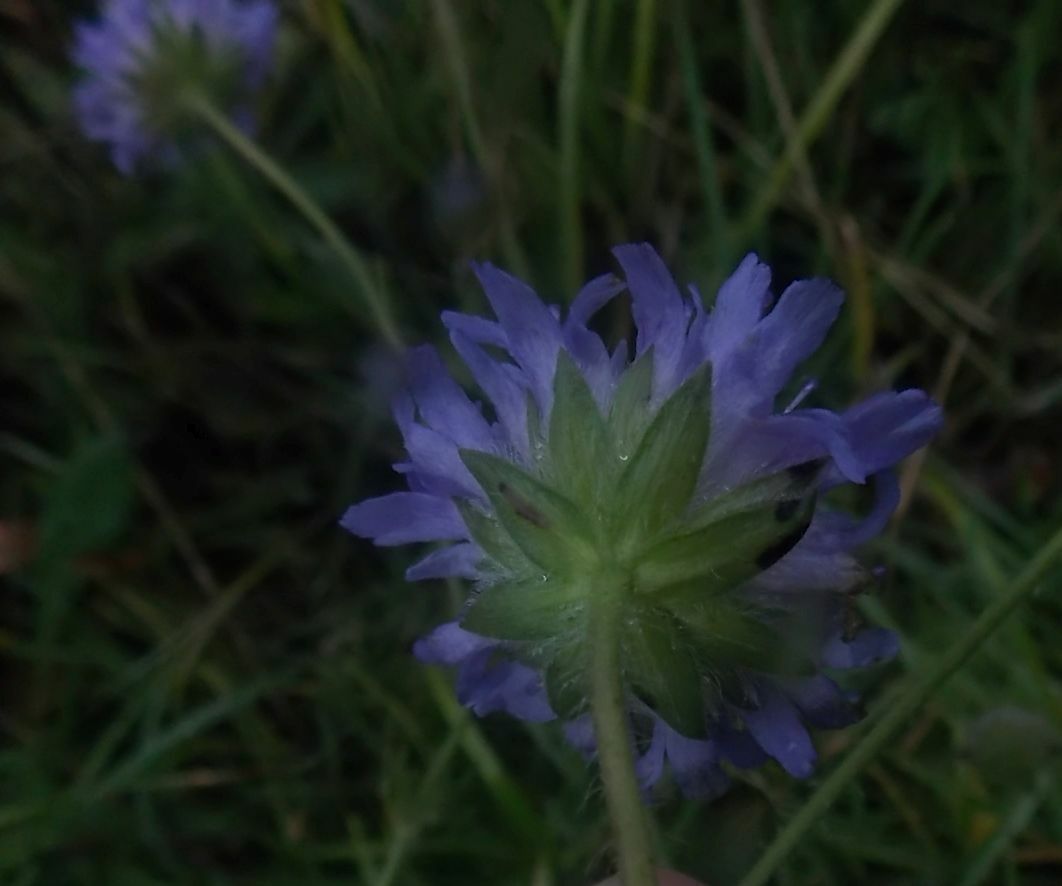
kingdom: Plantae
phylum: Tracheophyta
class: Magnoliopsida
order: Dipsacales
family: Caprifoliaceae
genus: Knautia
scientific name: Knautia arvensis
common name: Field scabiosa
